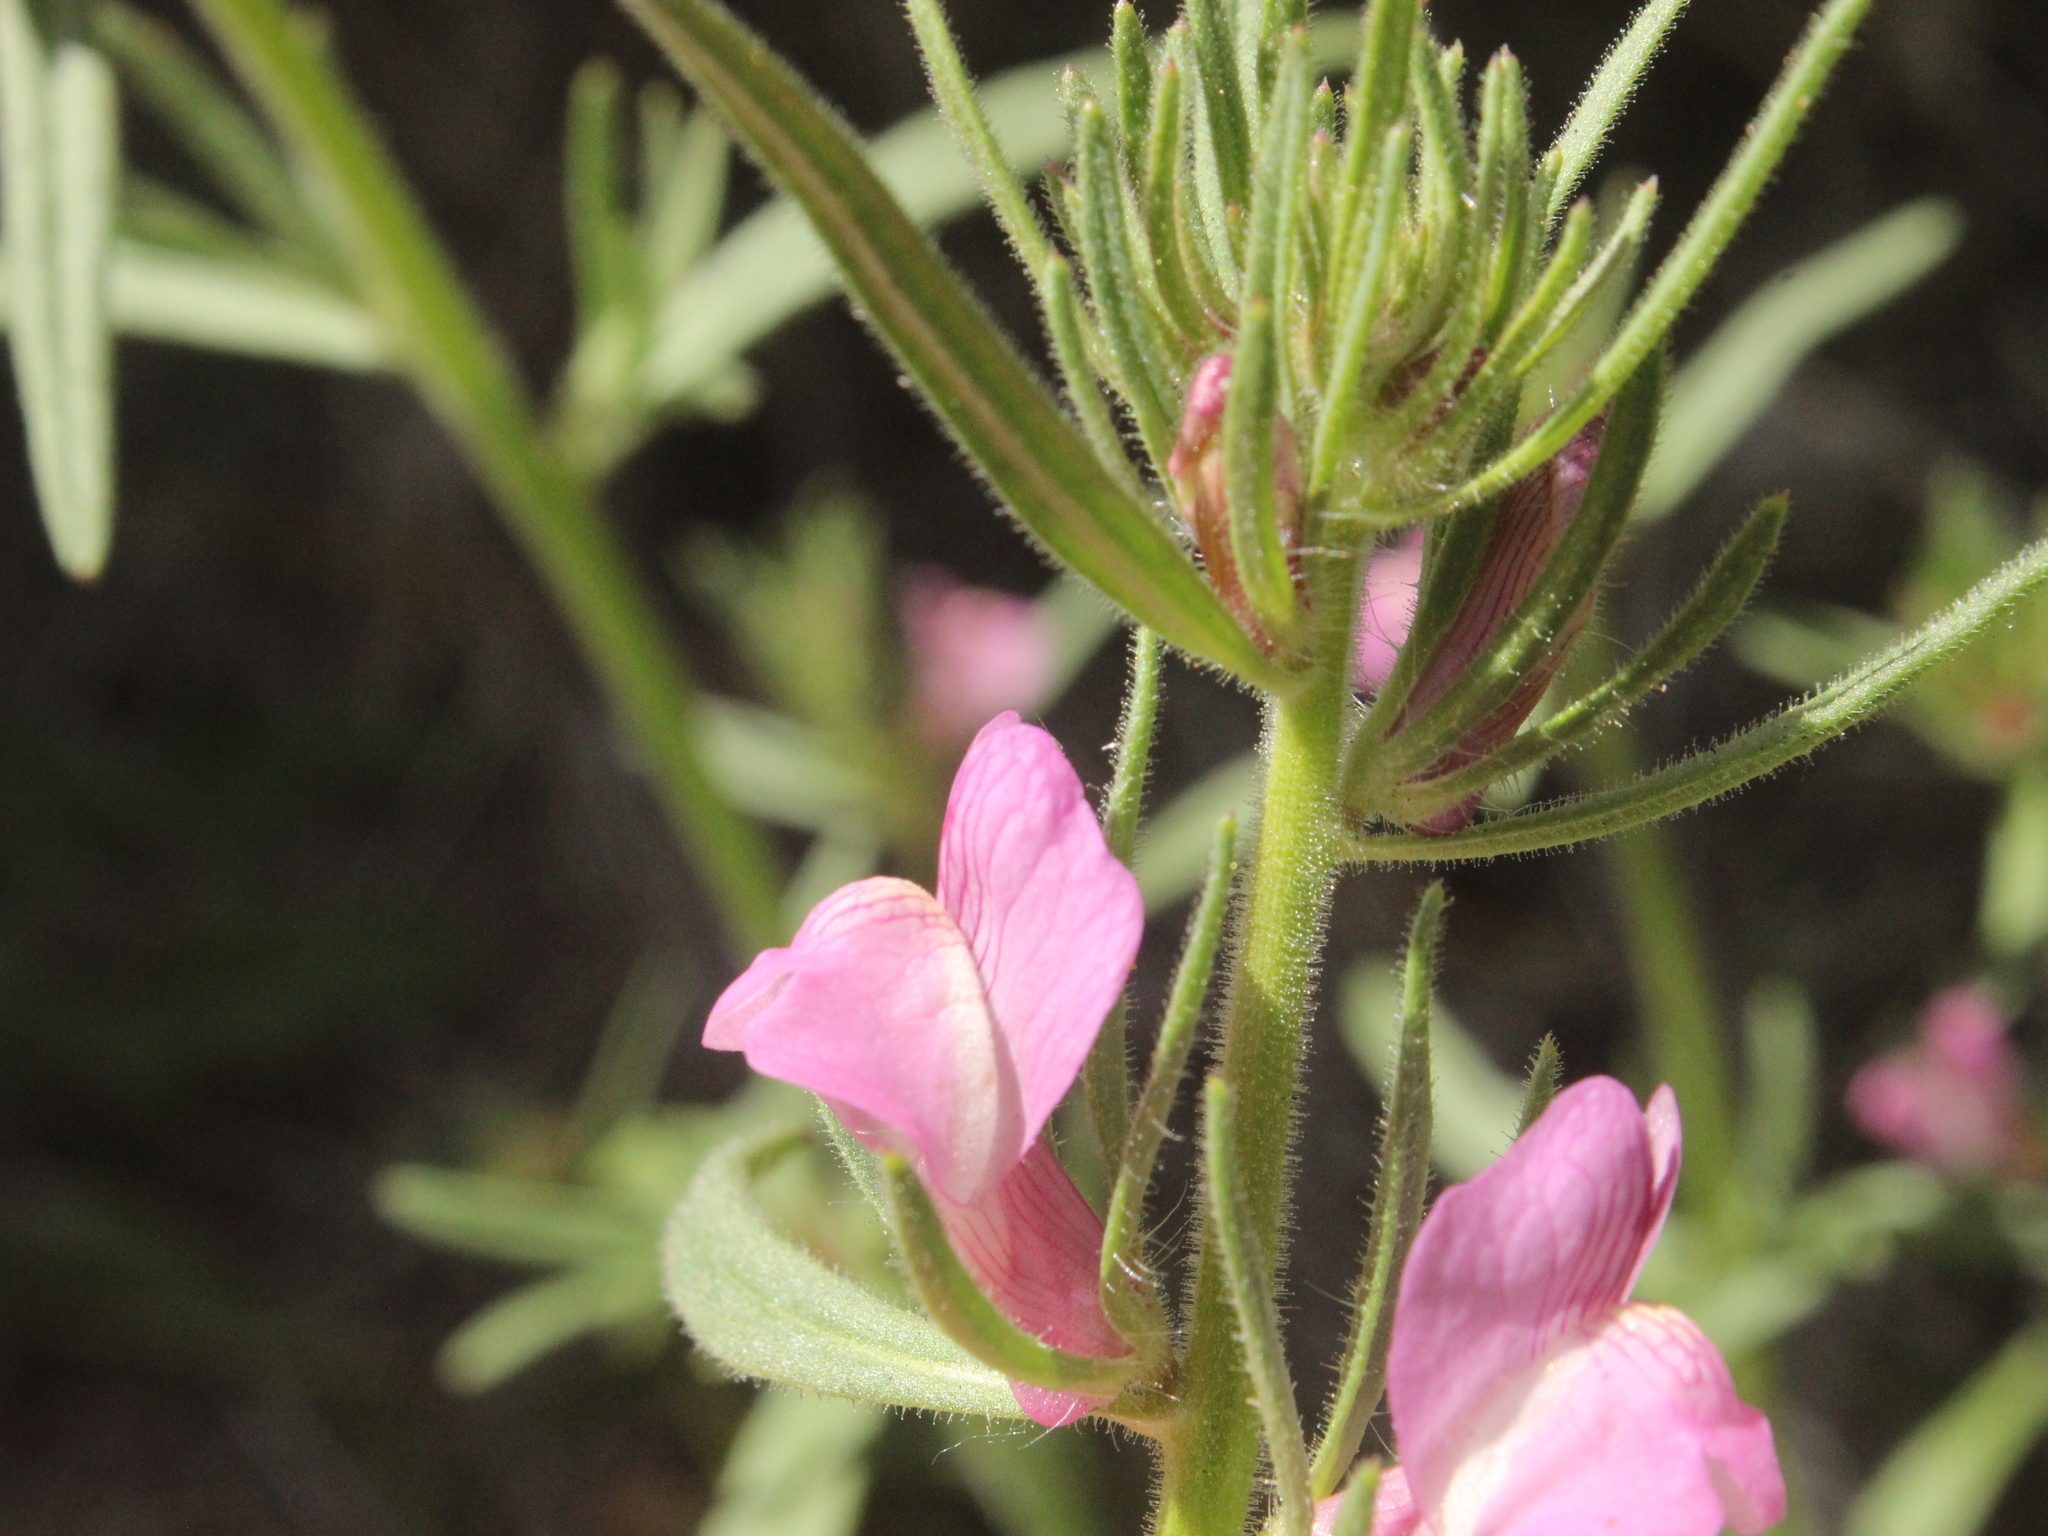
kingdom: Plantae
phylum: Tracheophyta
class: Magnoliopsida
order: Lamiales
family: Plantaginaceae
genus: Misopates
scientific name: Misopates orontium
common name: Weasel's-snout
